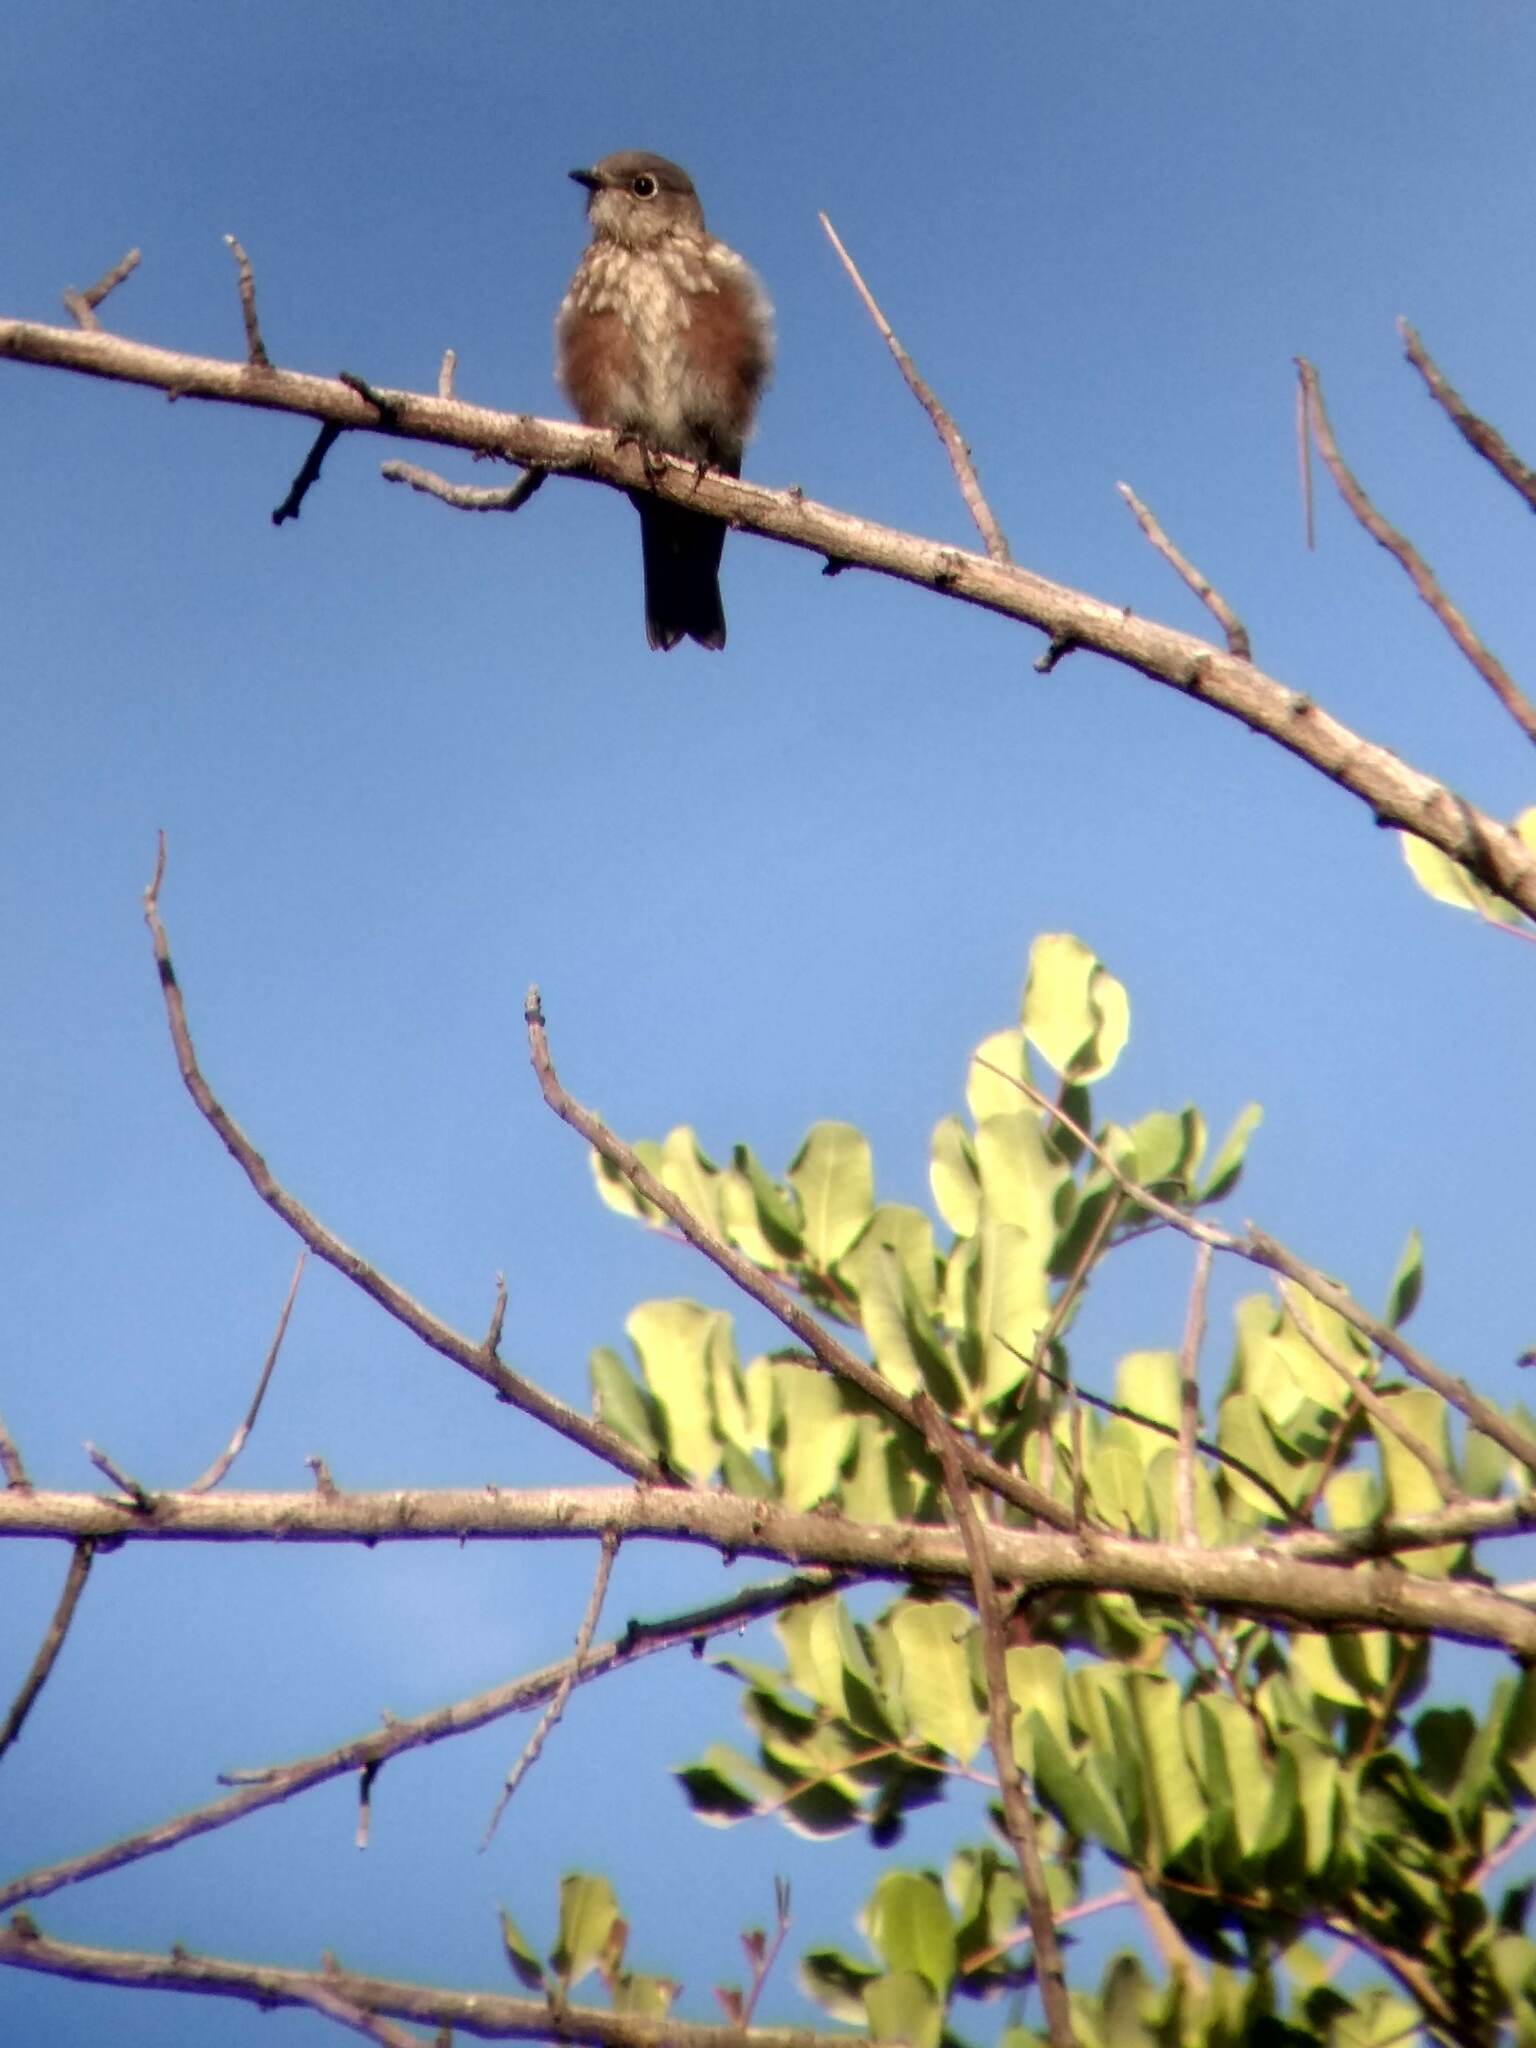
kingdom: Animalia
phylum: Chordata
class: Aves
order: Passeriformes
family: Turdidae
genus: Sialia
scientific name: Sialia mexicana
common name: Western bluebird
